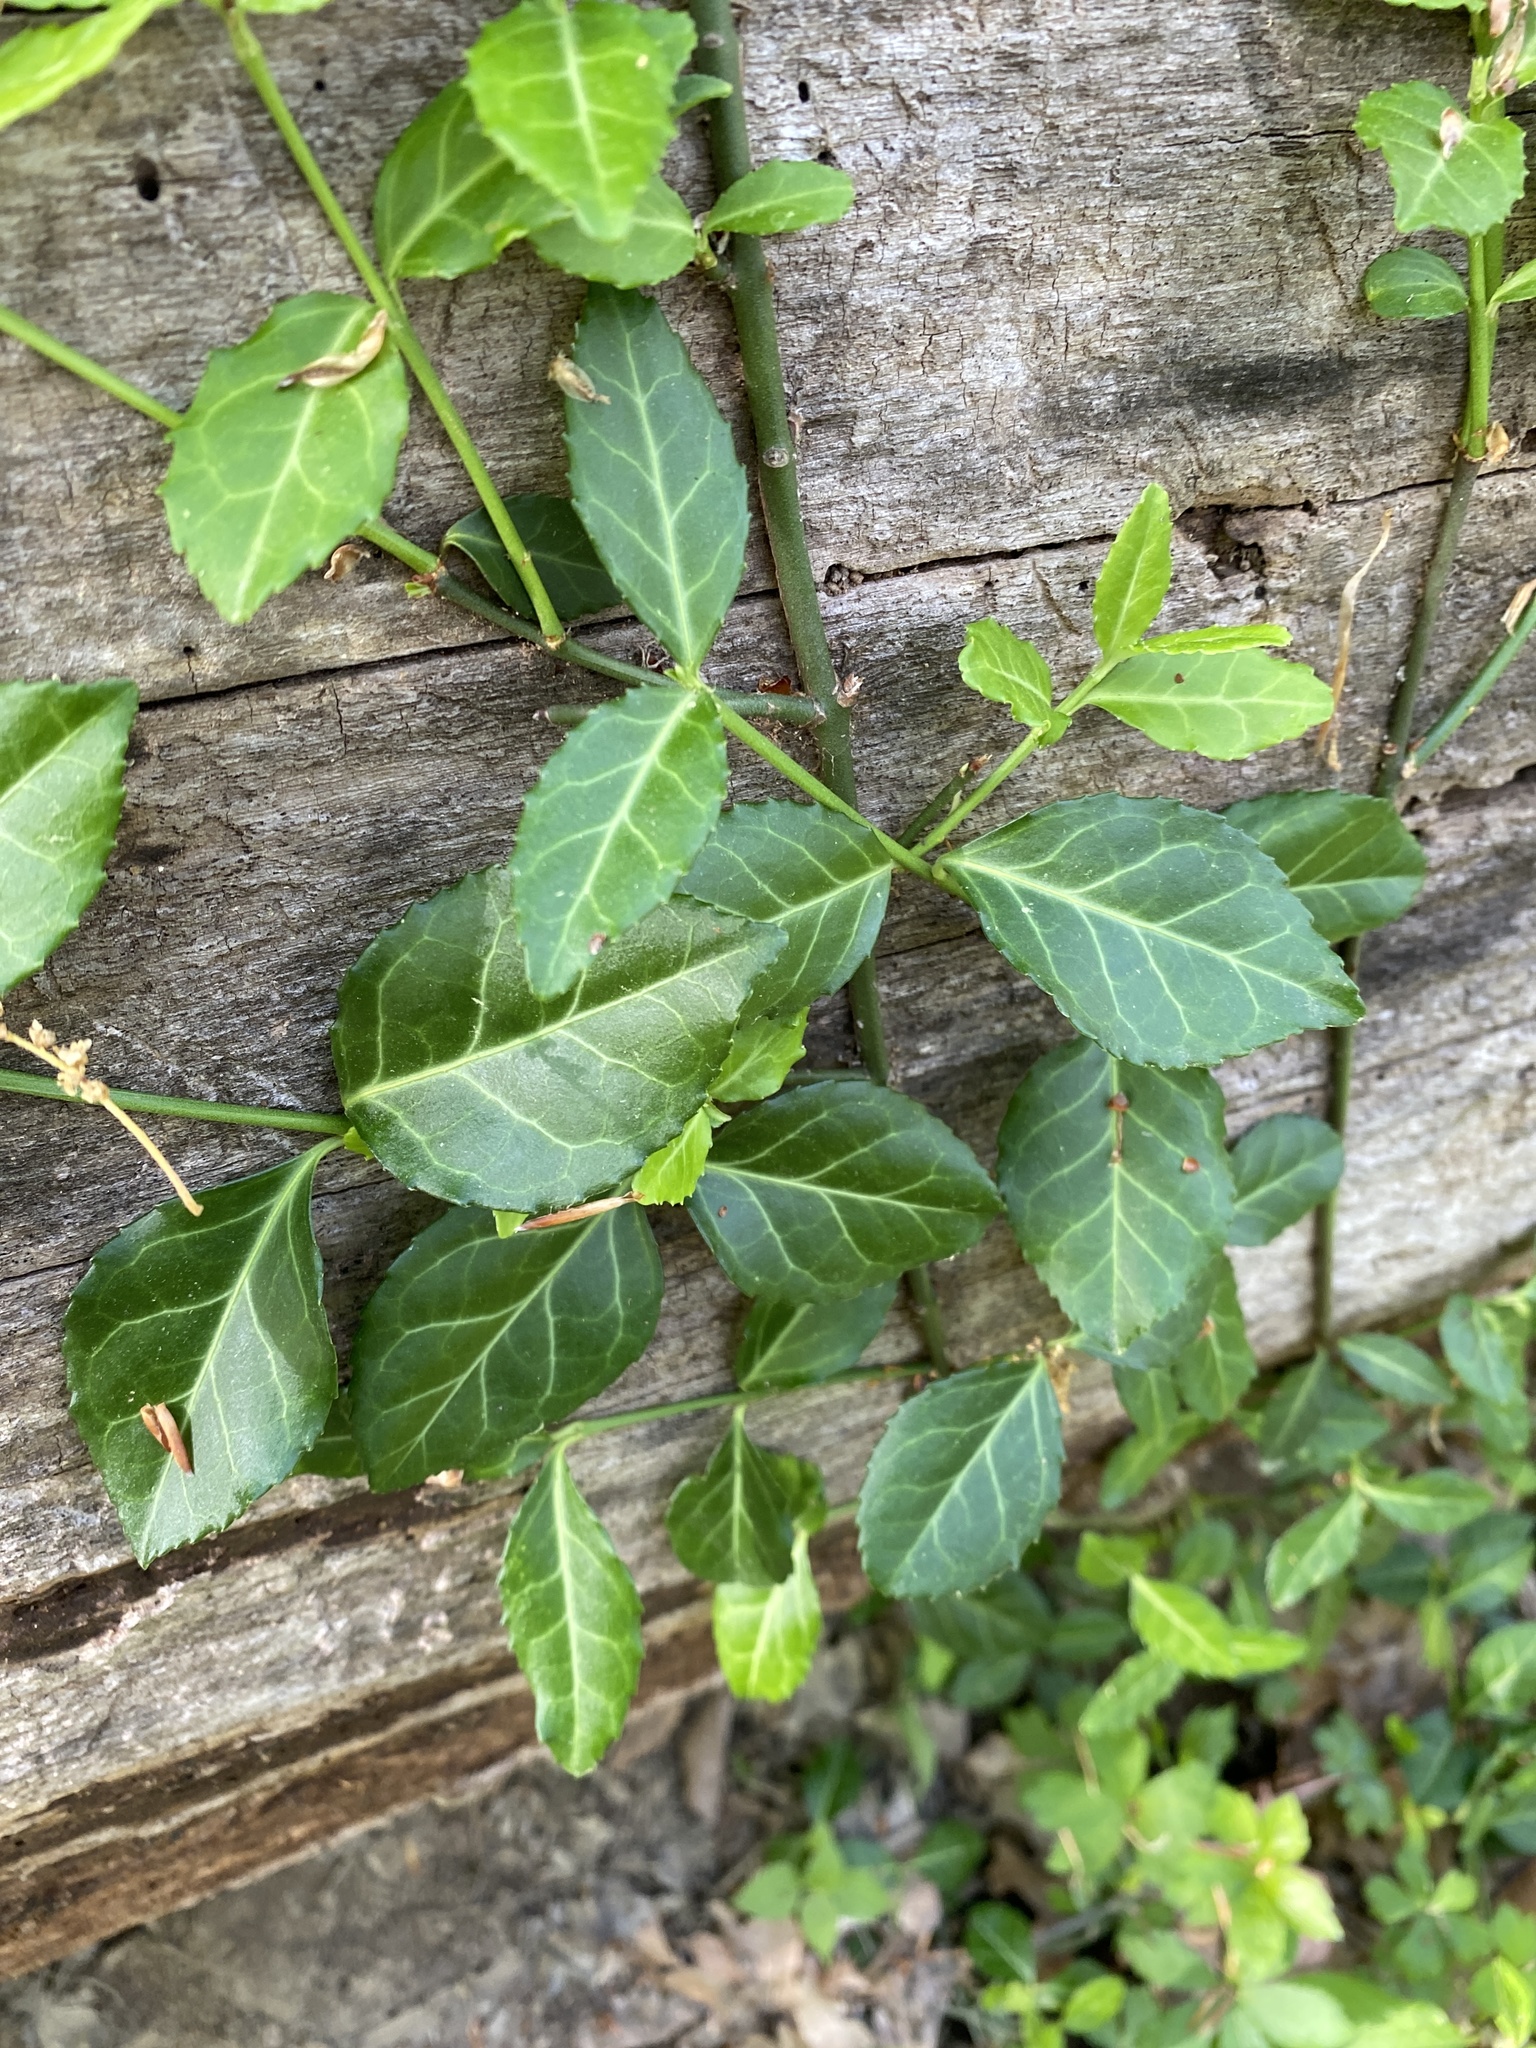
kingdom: Plantae
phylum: Tracheophyta
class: Magnoliopsida
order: Celastrales
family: Celastraceae
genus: Euonymus
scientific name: Euonymus fortunei
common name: Climbing euonymus
